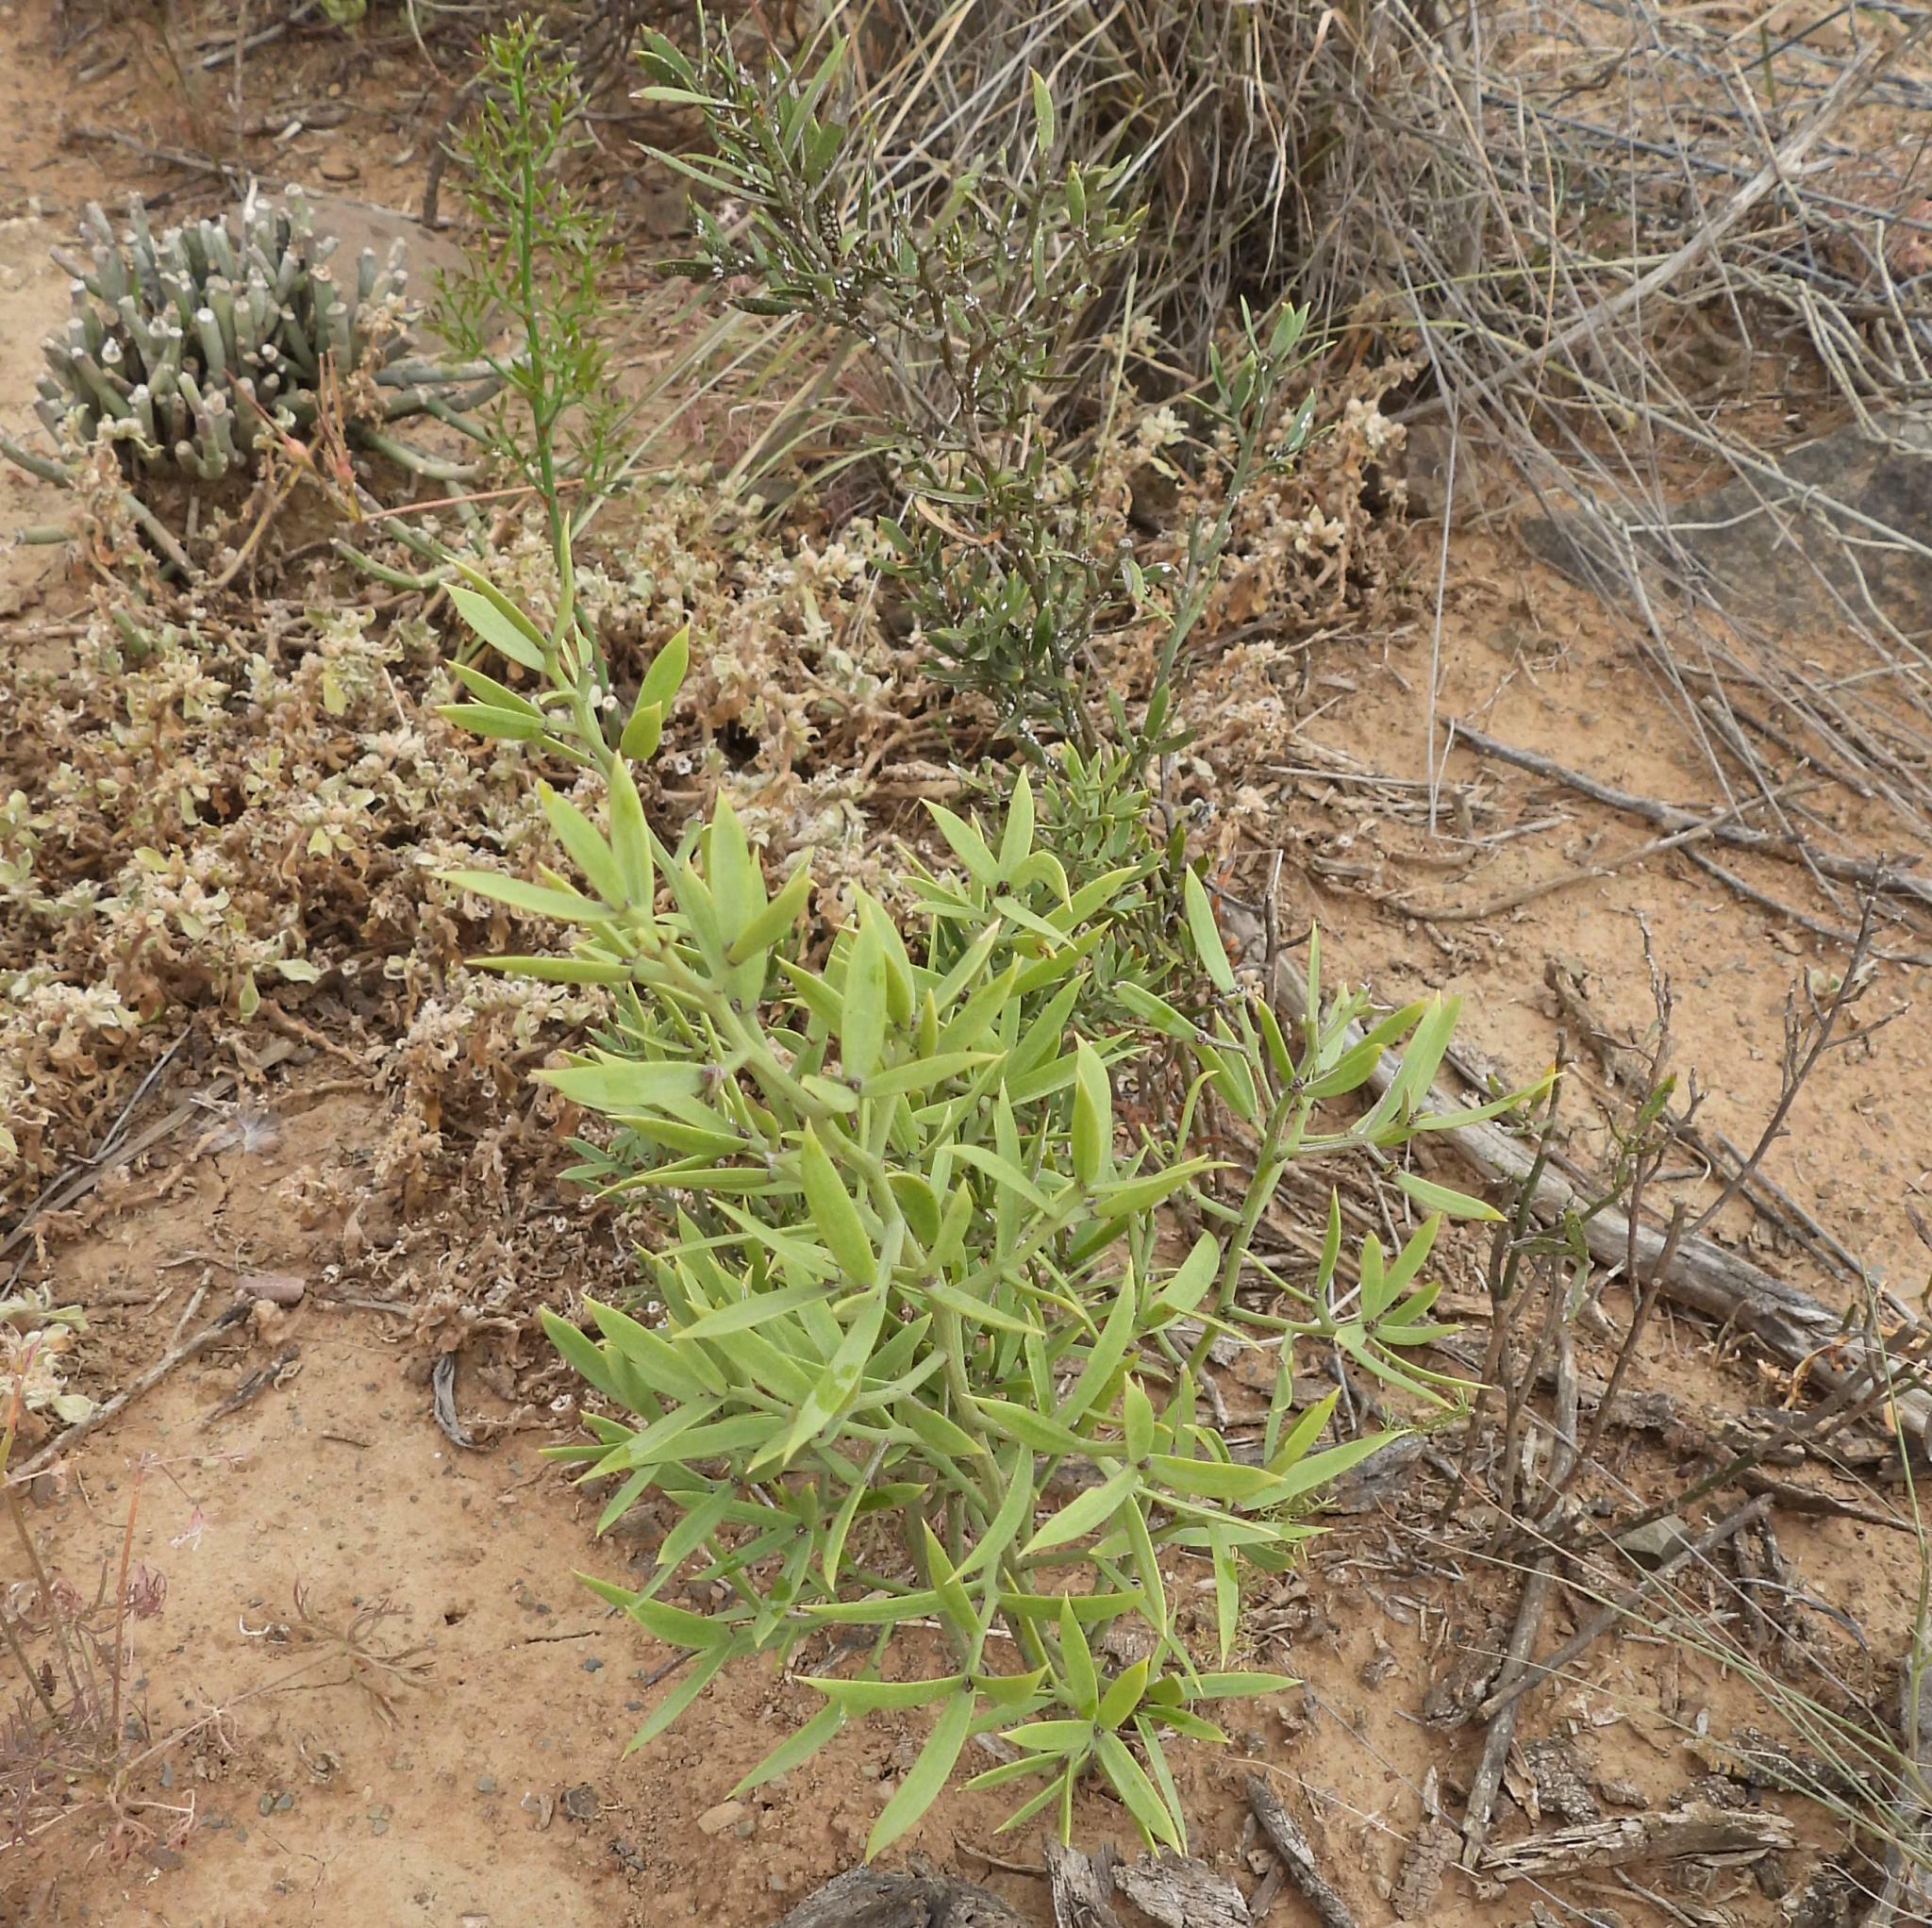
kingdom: Plantae
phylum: Tracheophyta
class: Liliopsida
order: Asparagales
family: Asparagaceae
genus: Asparagus
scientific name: Asparagus striatus
